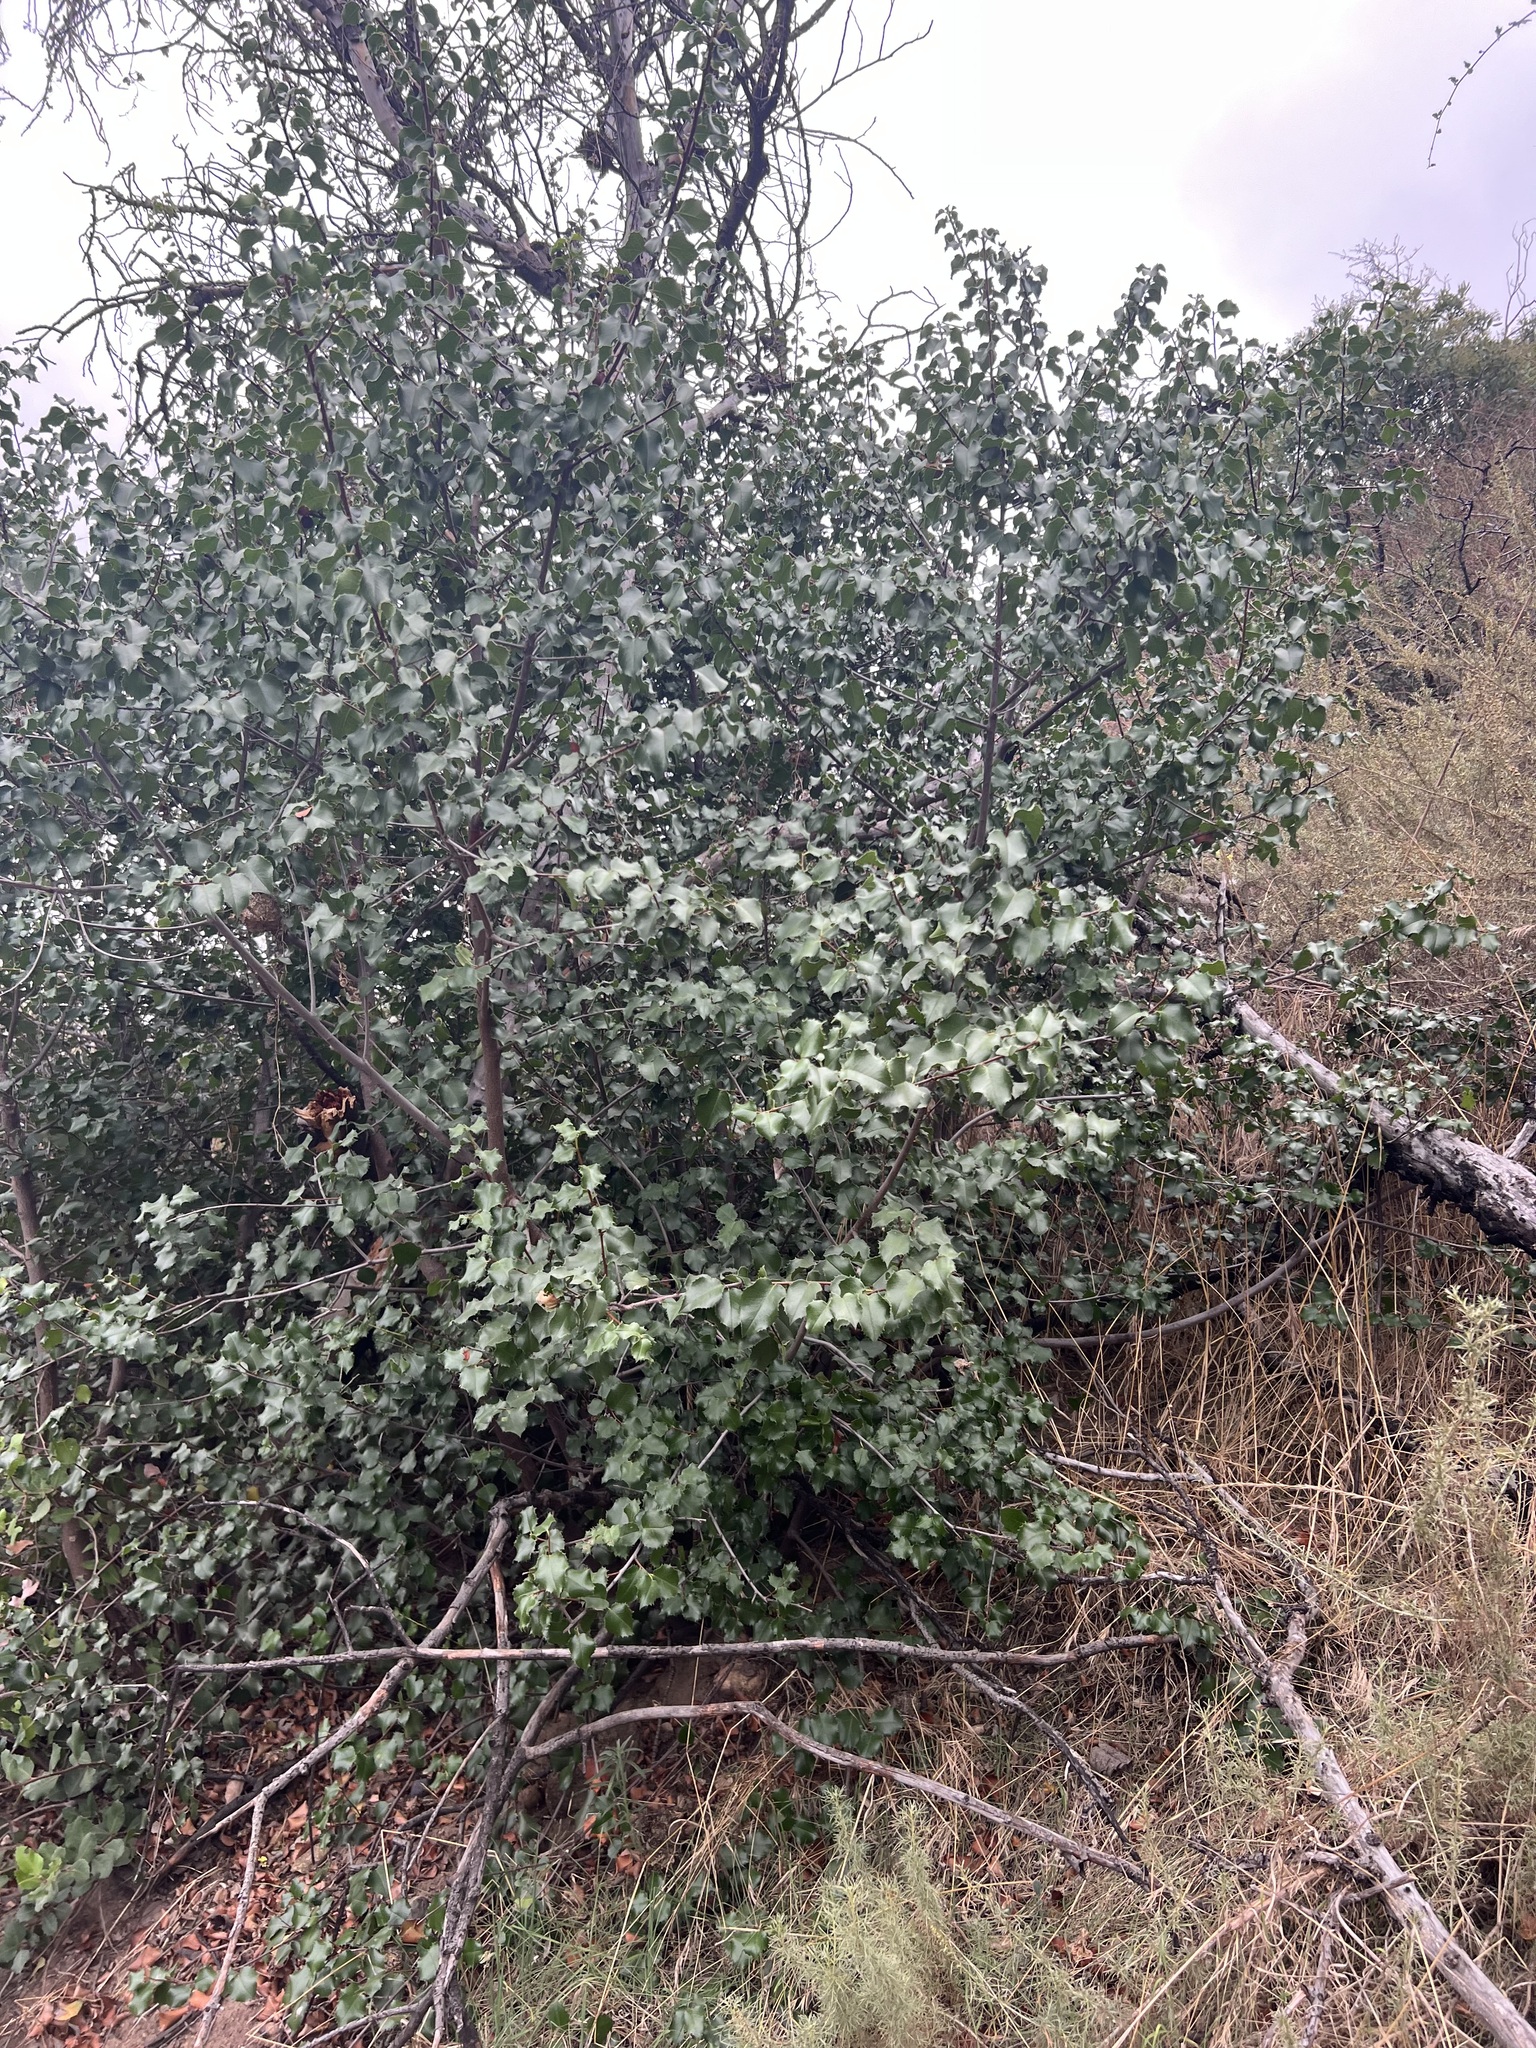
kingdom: Plantae
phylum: Tracheophyta
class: Magnoliopsida
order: Rosales
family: Rosaceae
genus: Prunus
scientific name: Prunus ilicifolia
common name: Hollyleaf cherry
